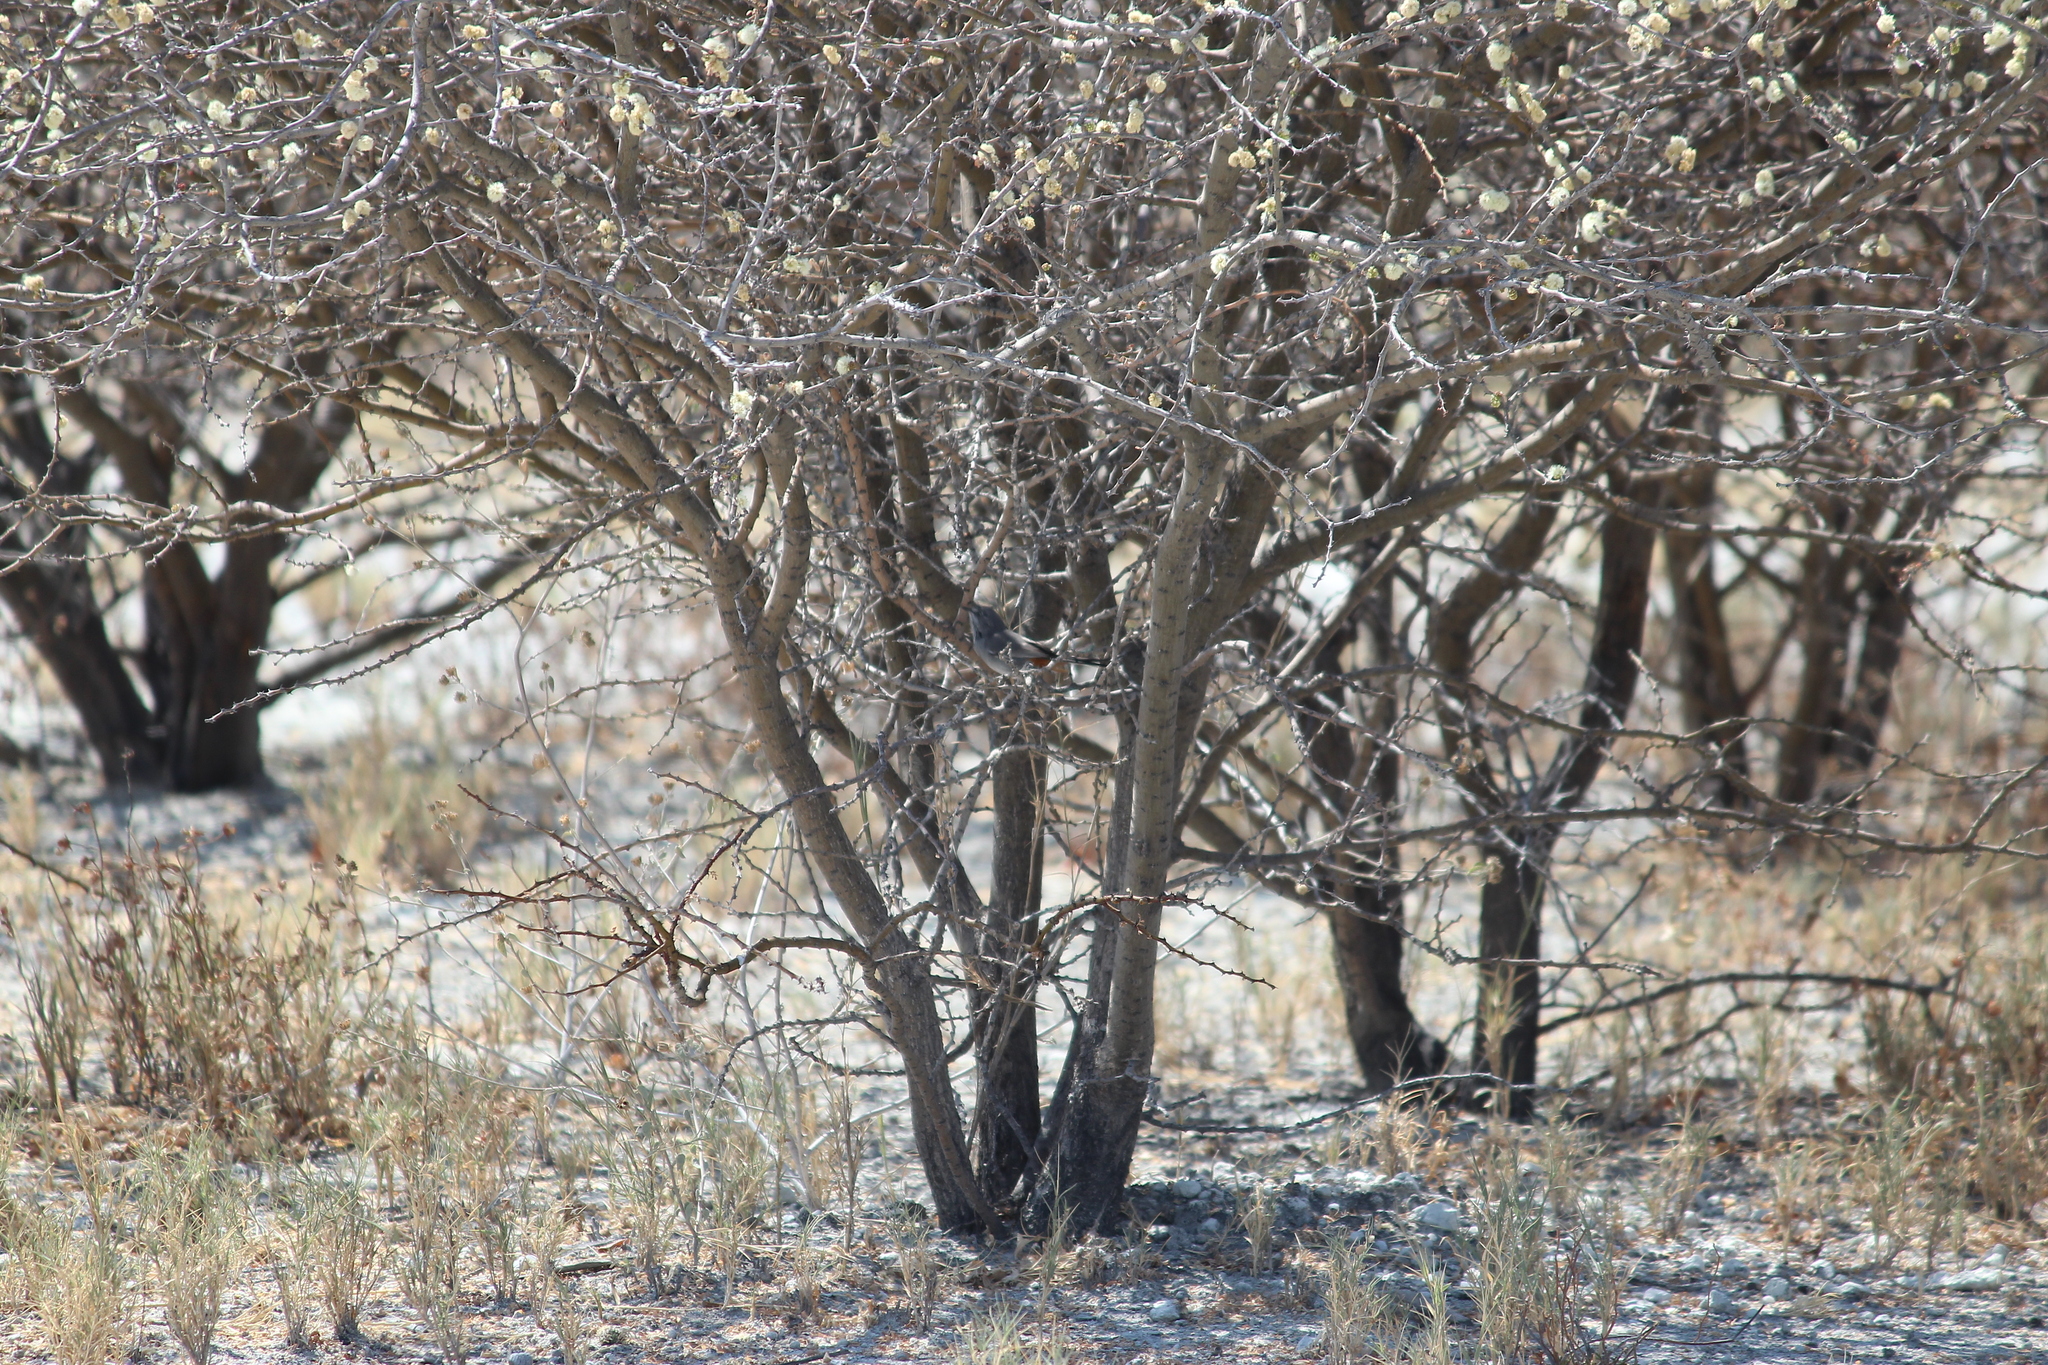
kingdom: Animalia
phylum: Chordata
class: Aves
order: Passeriformes
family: Sylviidae
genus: Curruca
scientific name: Curruca subcoerulea
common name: Chestnut-vented warbler
